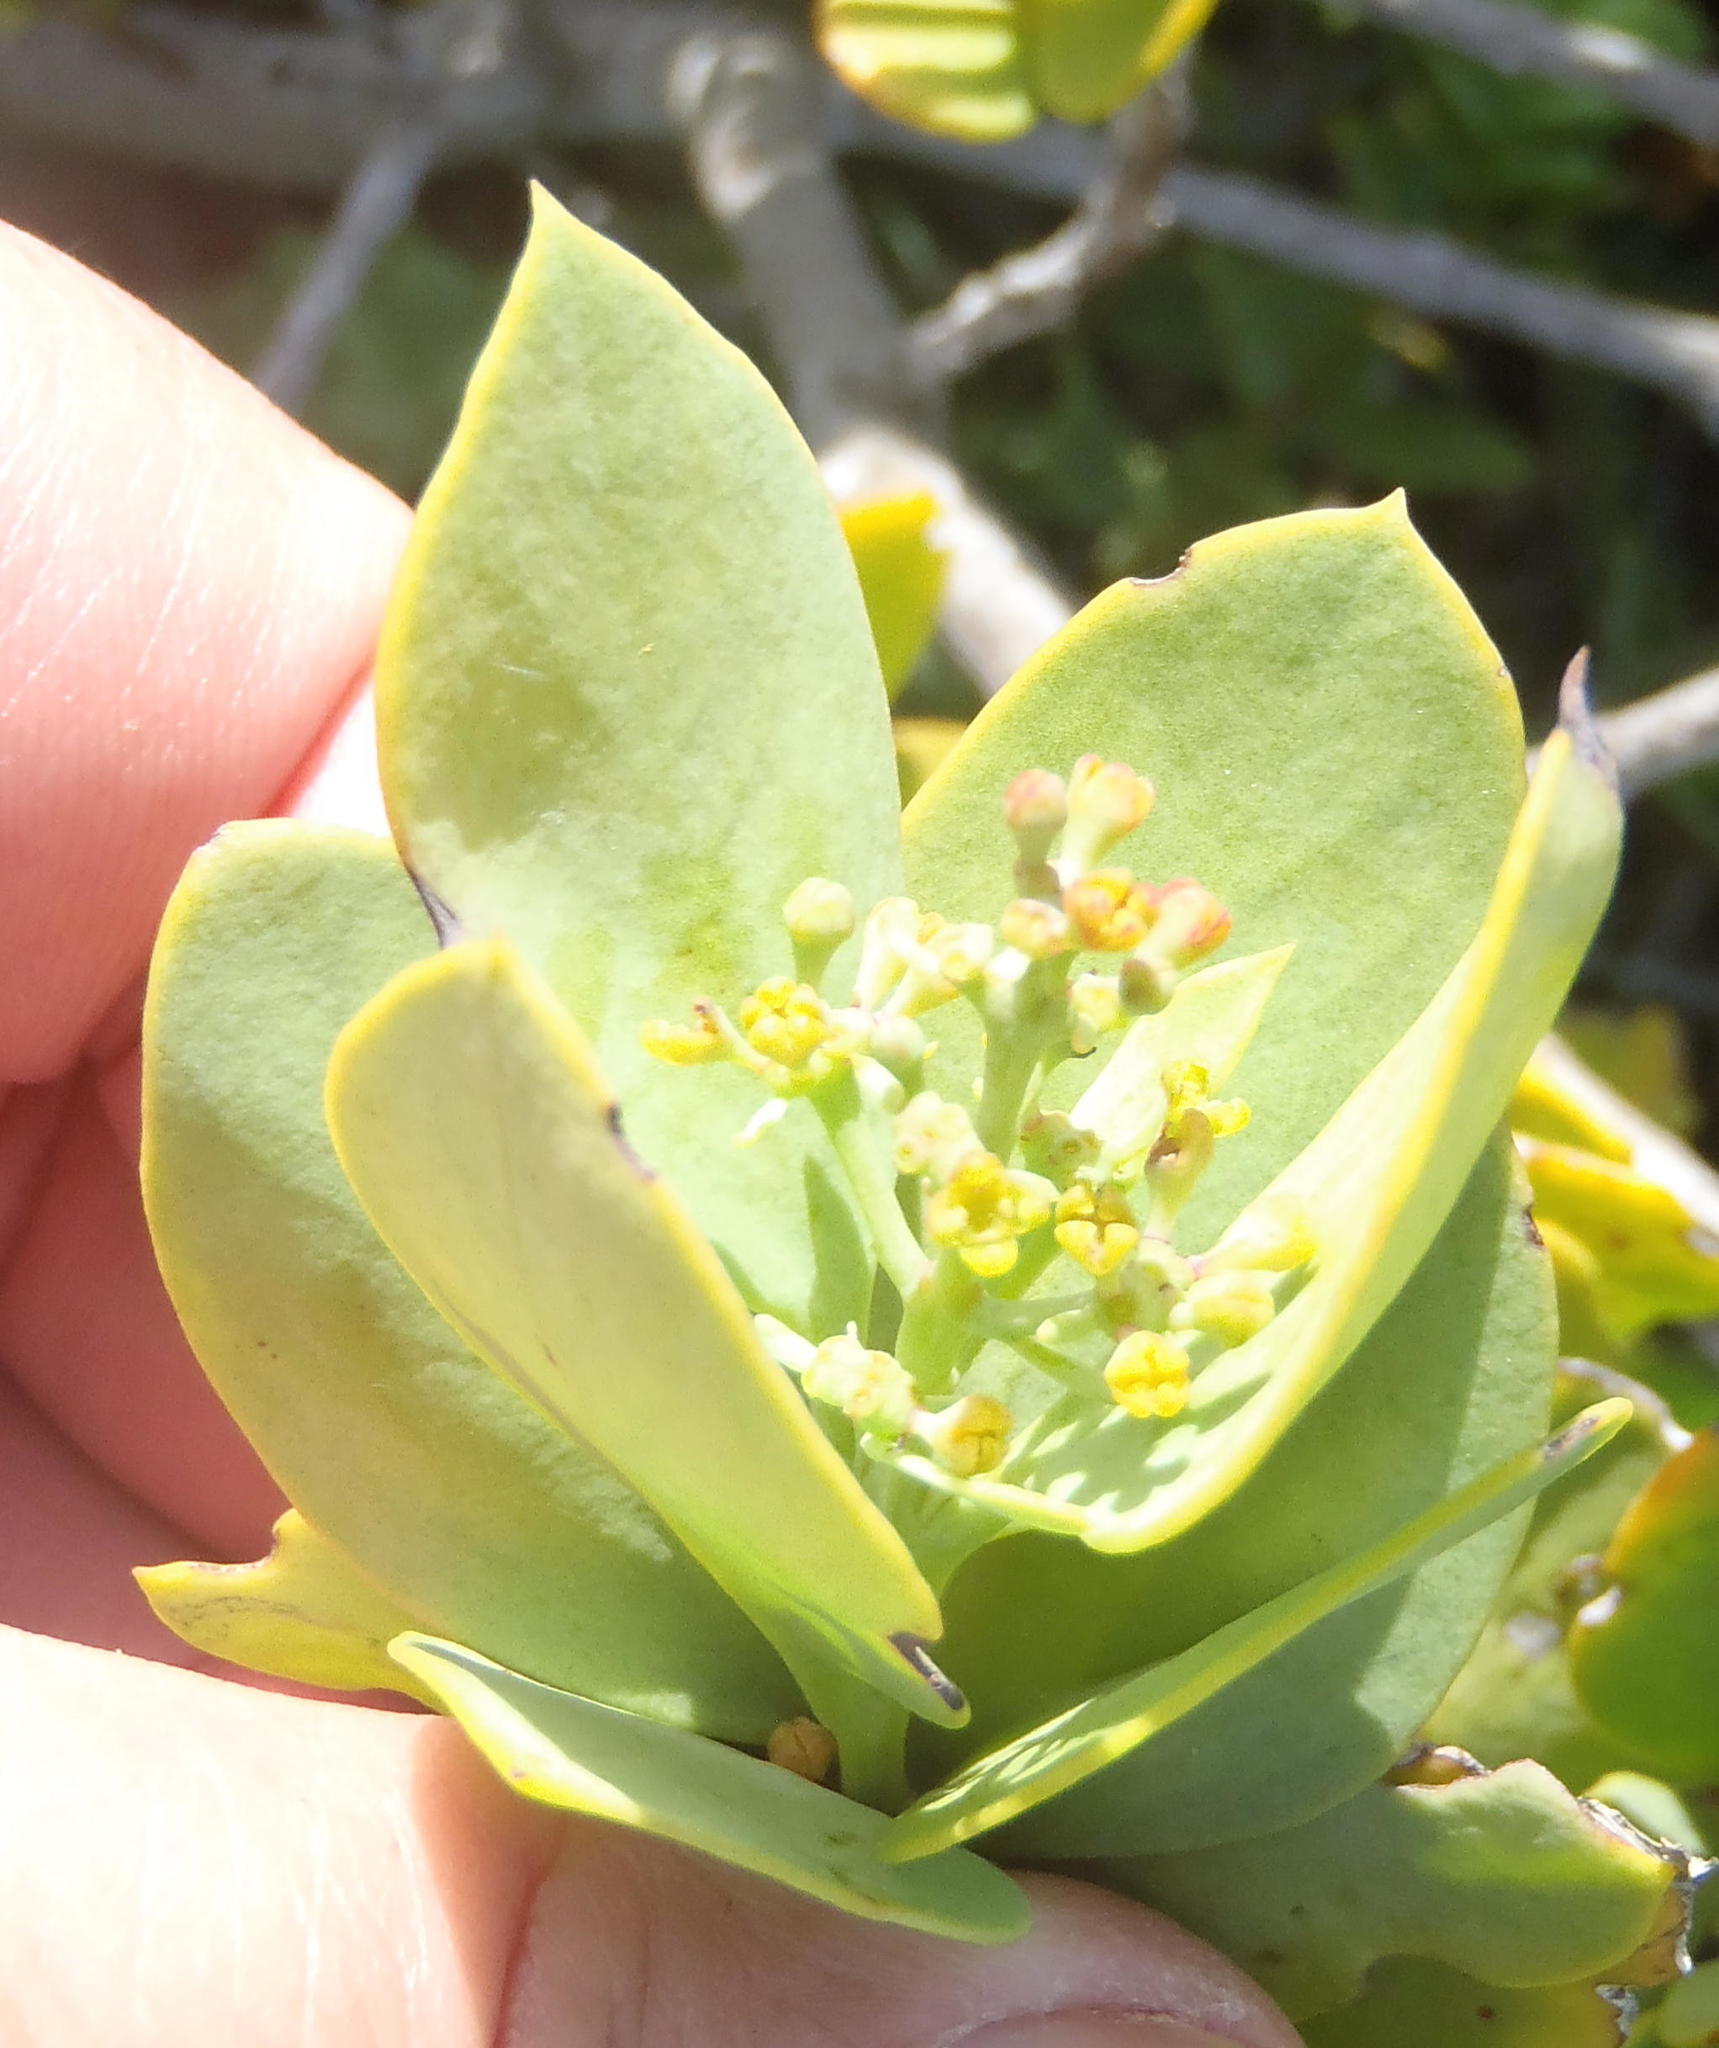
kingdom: Plantae
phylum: Tracheophyta
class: Magnoliopsida
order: Santalales
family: Santalaceae
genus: Osyris
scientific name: Osyris compressa
